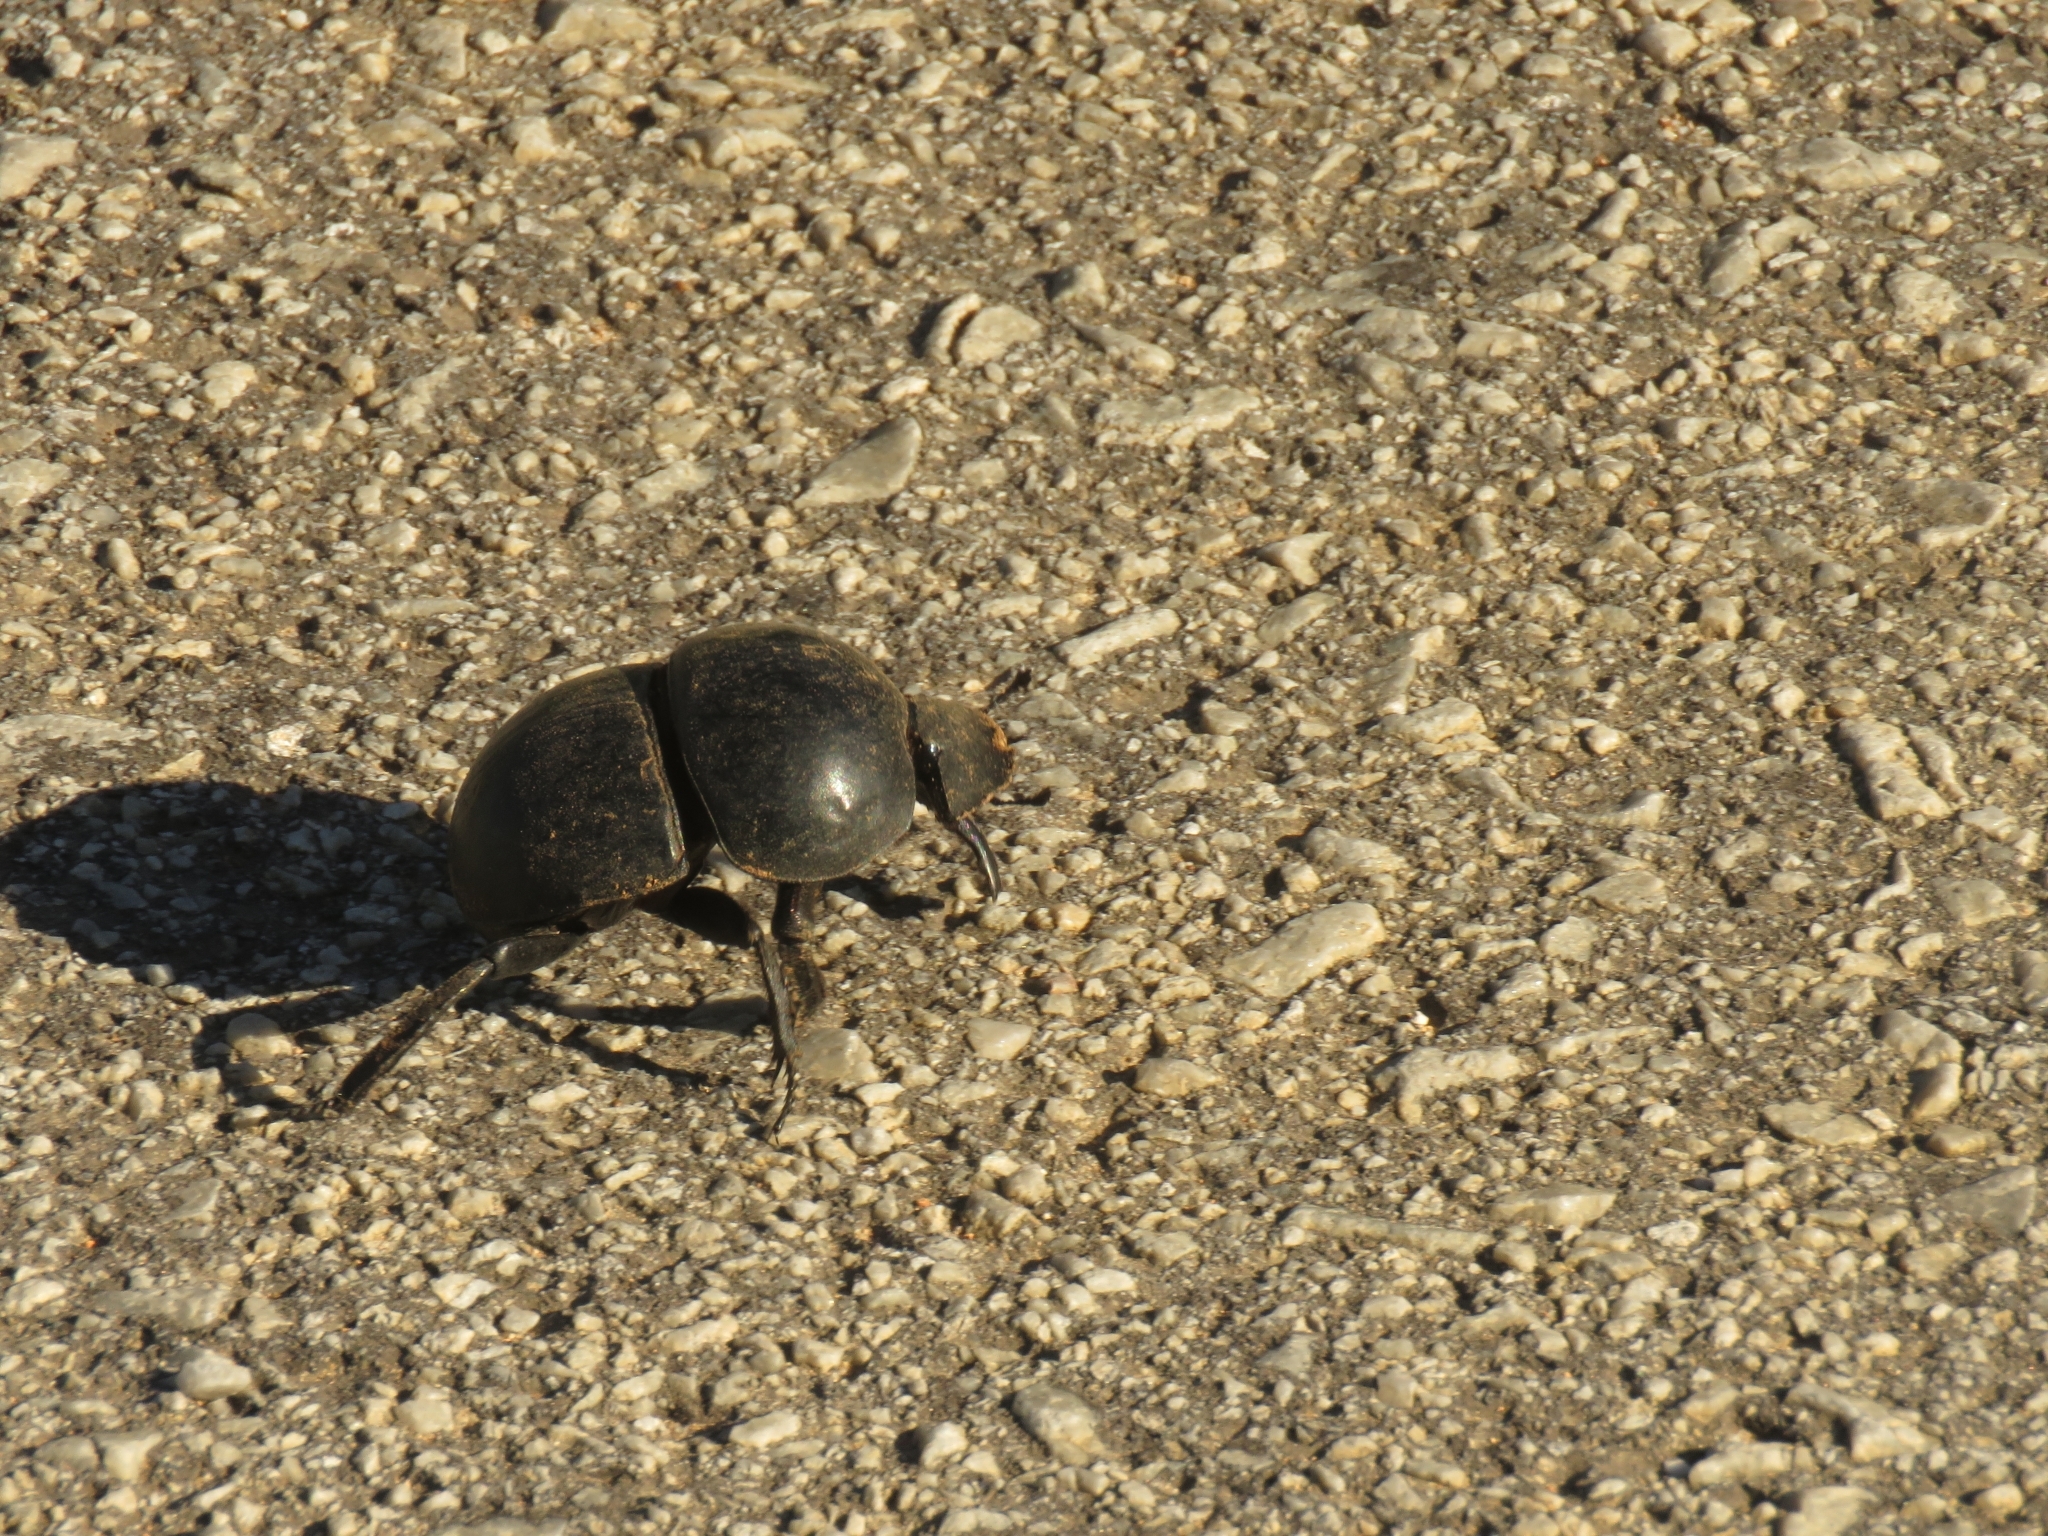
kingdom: Animalia
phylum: Arthropoda
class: Insecta
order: Coleoptera
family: Scarabaeidae
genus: Circellium
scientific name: Circellium bacchus
